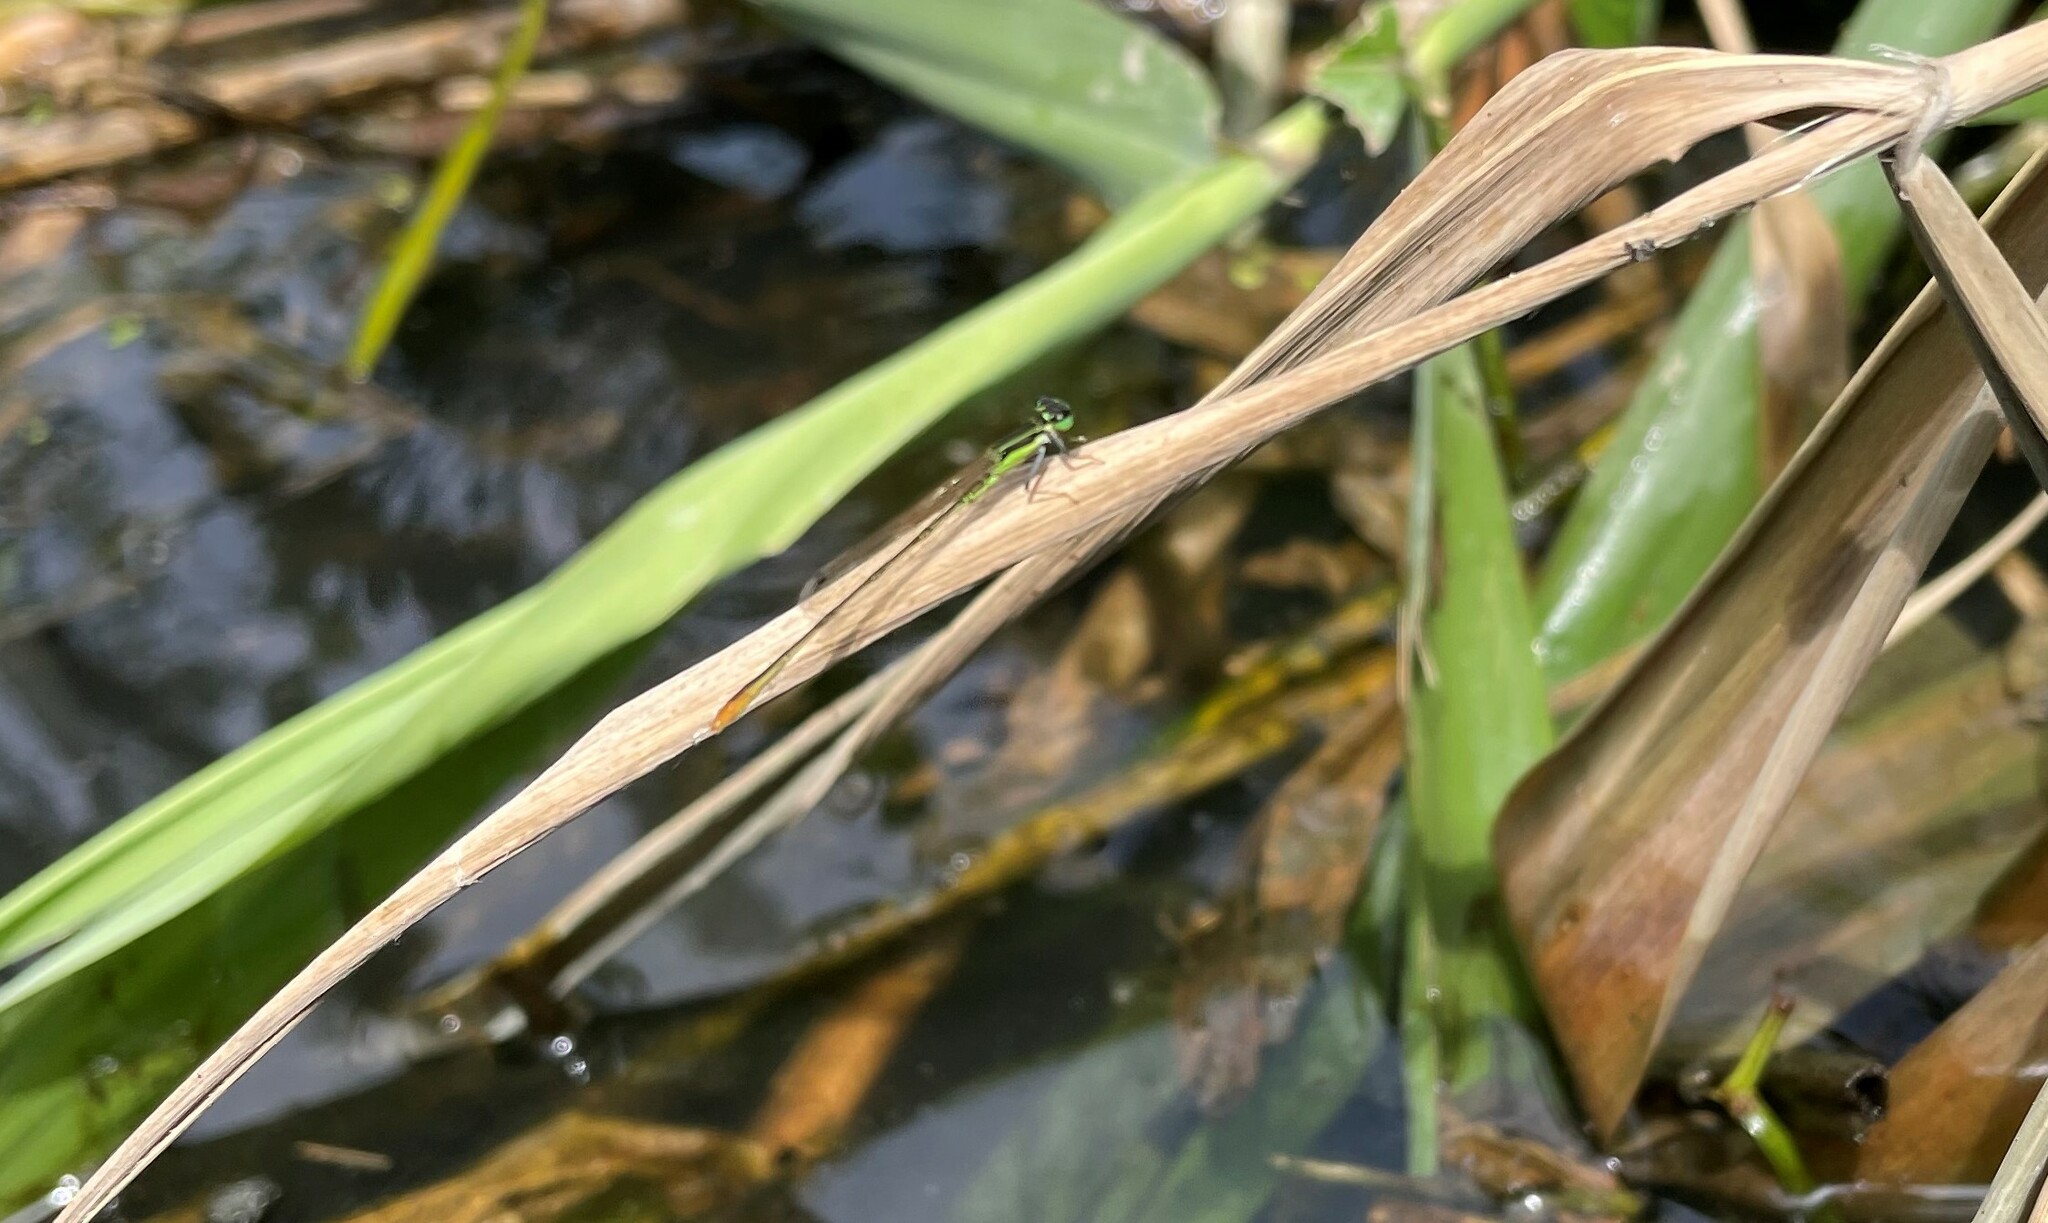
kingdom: Animalia
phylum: Arthropoda
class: Insecta
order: Odonata
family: Coenagrionidae
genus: Agriocnemis
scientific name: Agriocnemis femina
